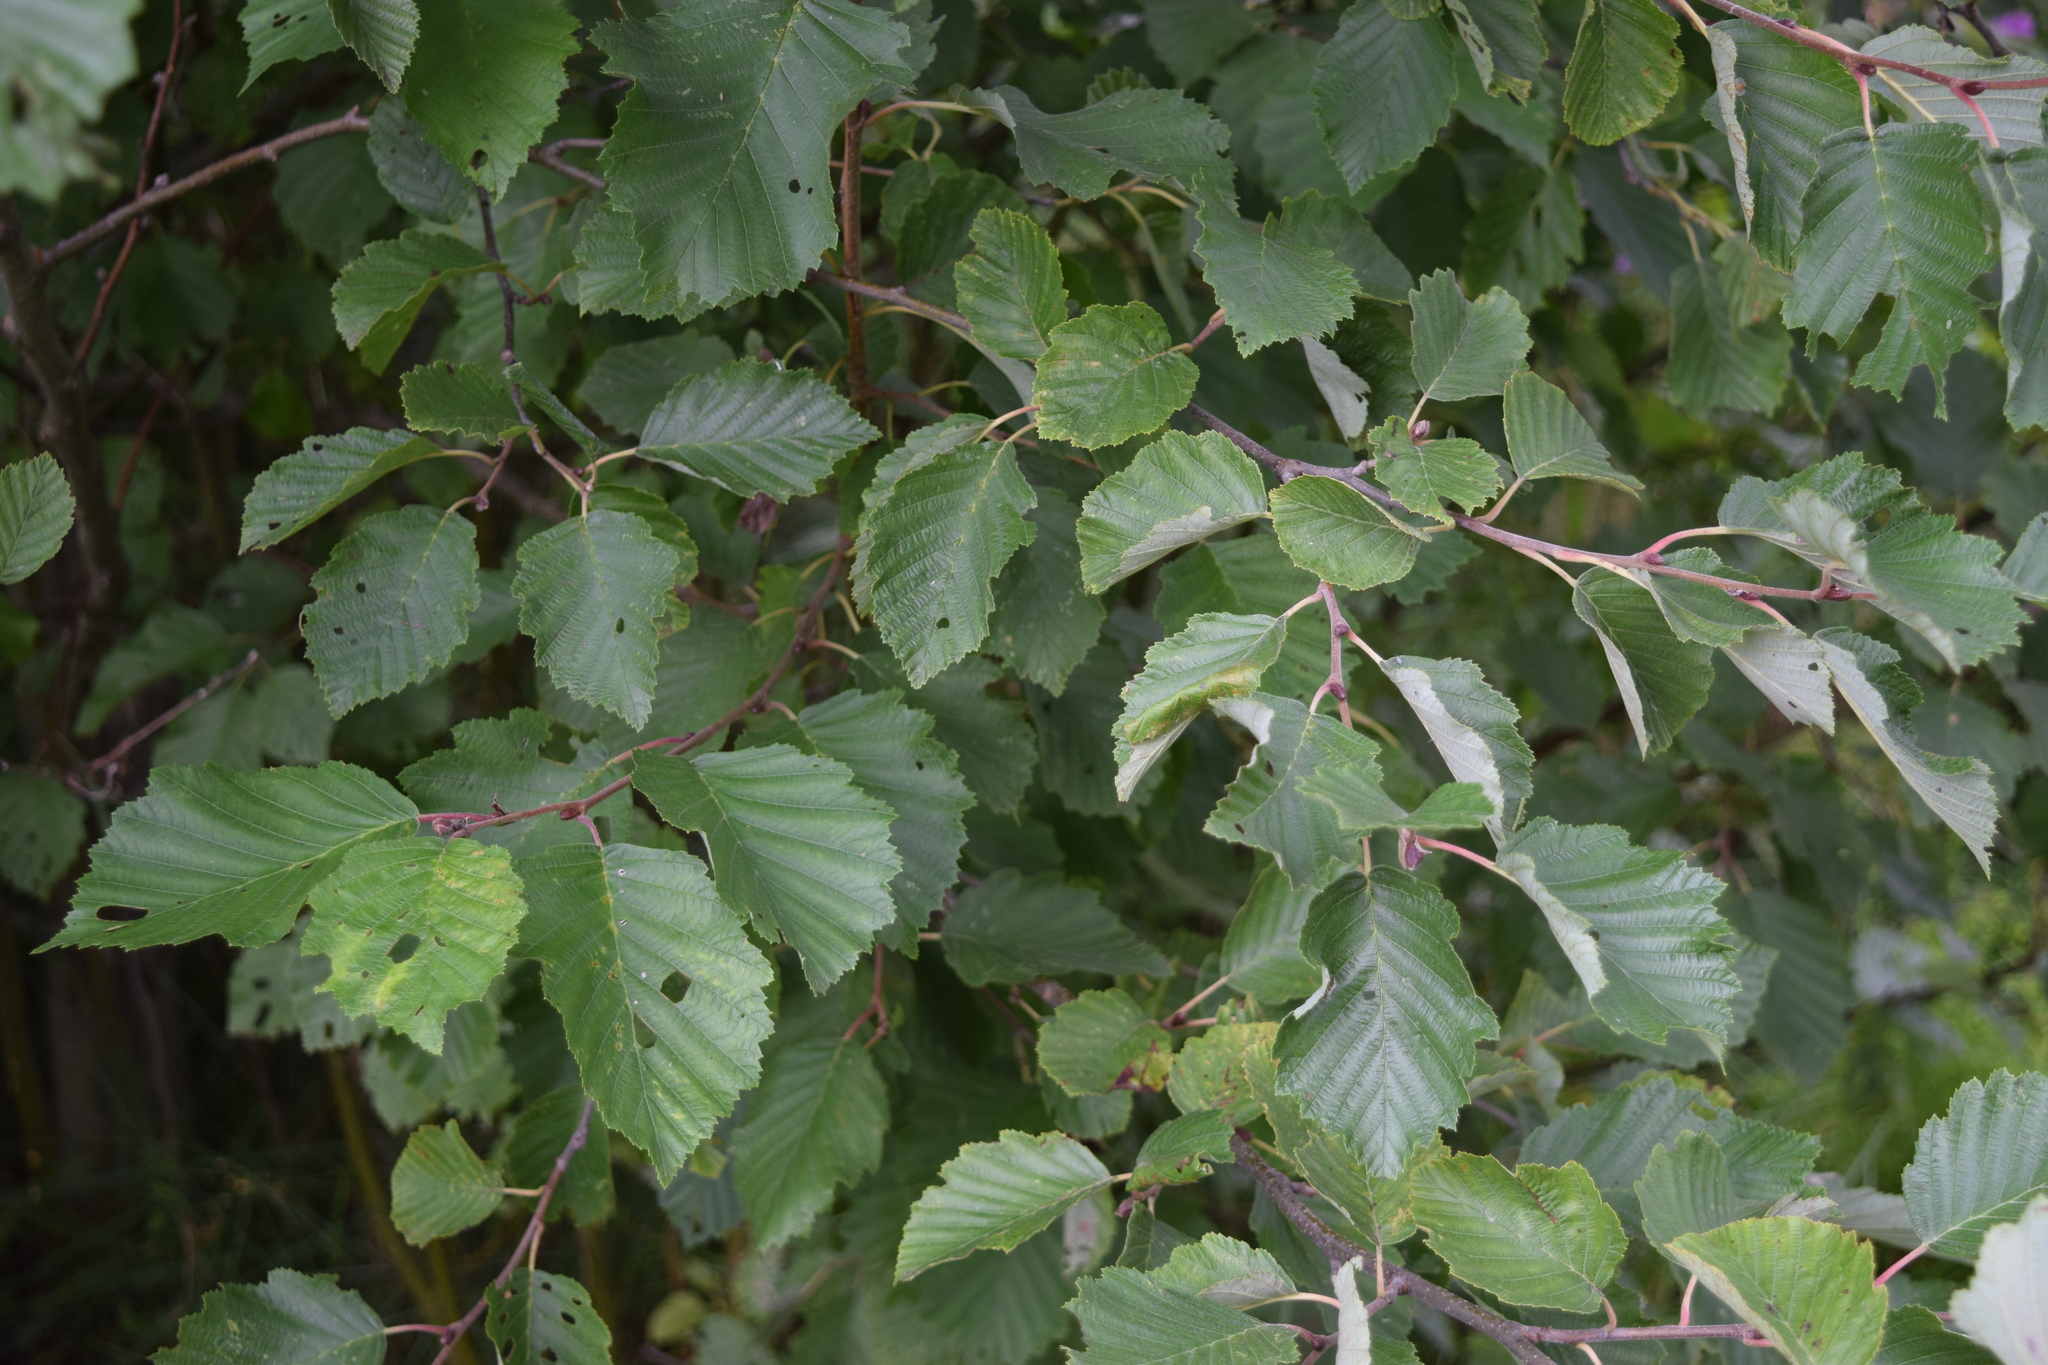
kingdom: Plantae
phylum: Tracheophyta
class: Magnoliopsida
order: Fagales
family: Betulaceae
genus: Alnus
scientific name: Alnus incana
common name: Grey alder
